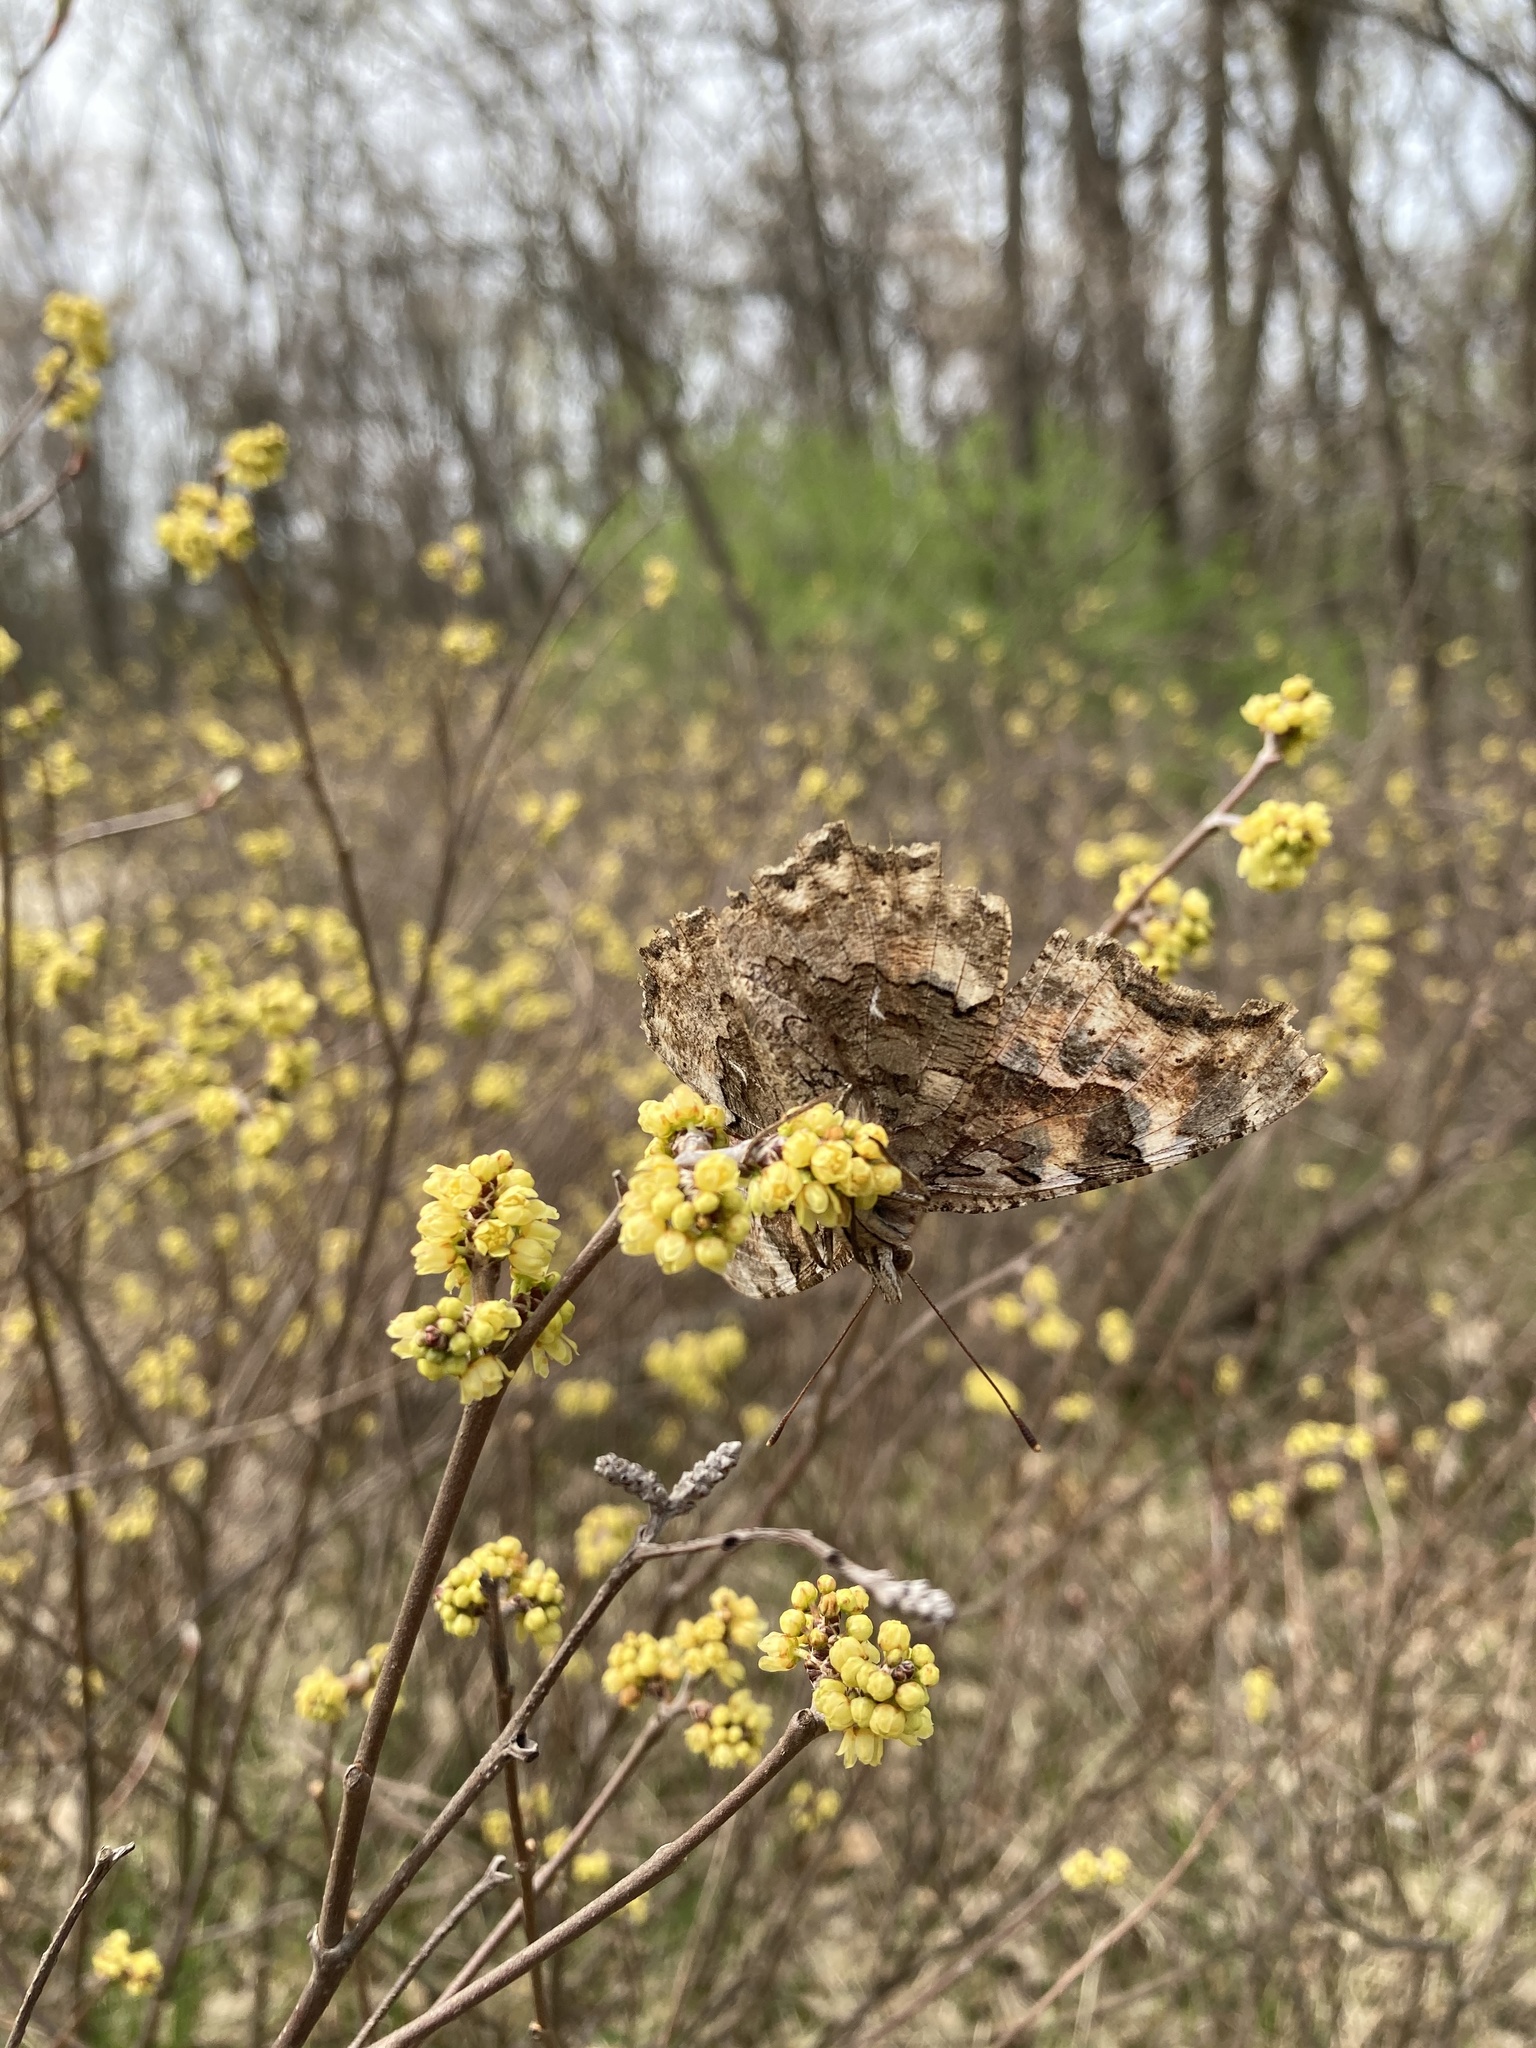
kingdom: Animalia
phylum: Arthropoda
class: Insecta
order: Lepidoptera
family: Nymphalidae
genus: Polygonia
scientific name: Polygonia vaualbum
